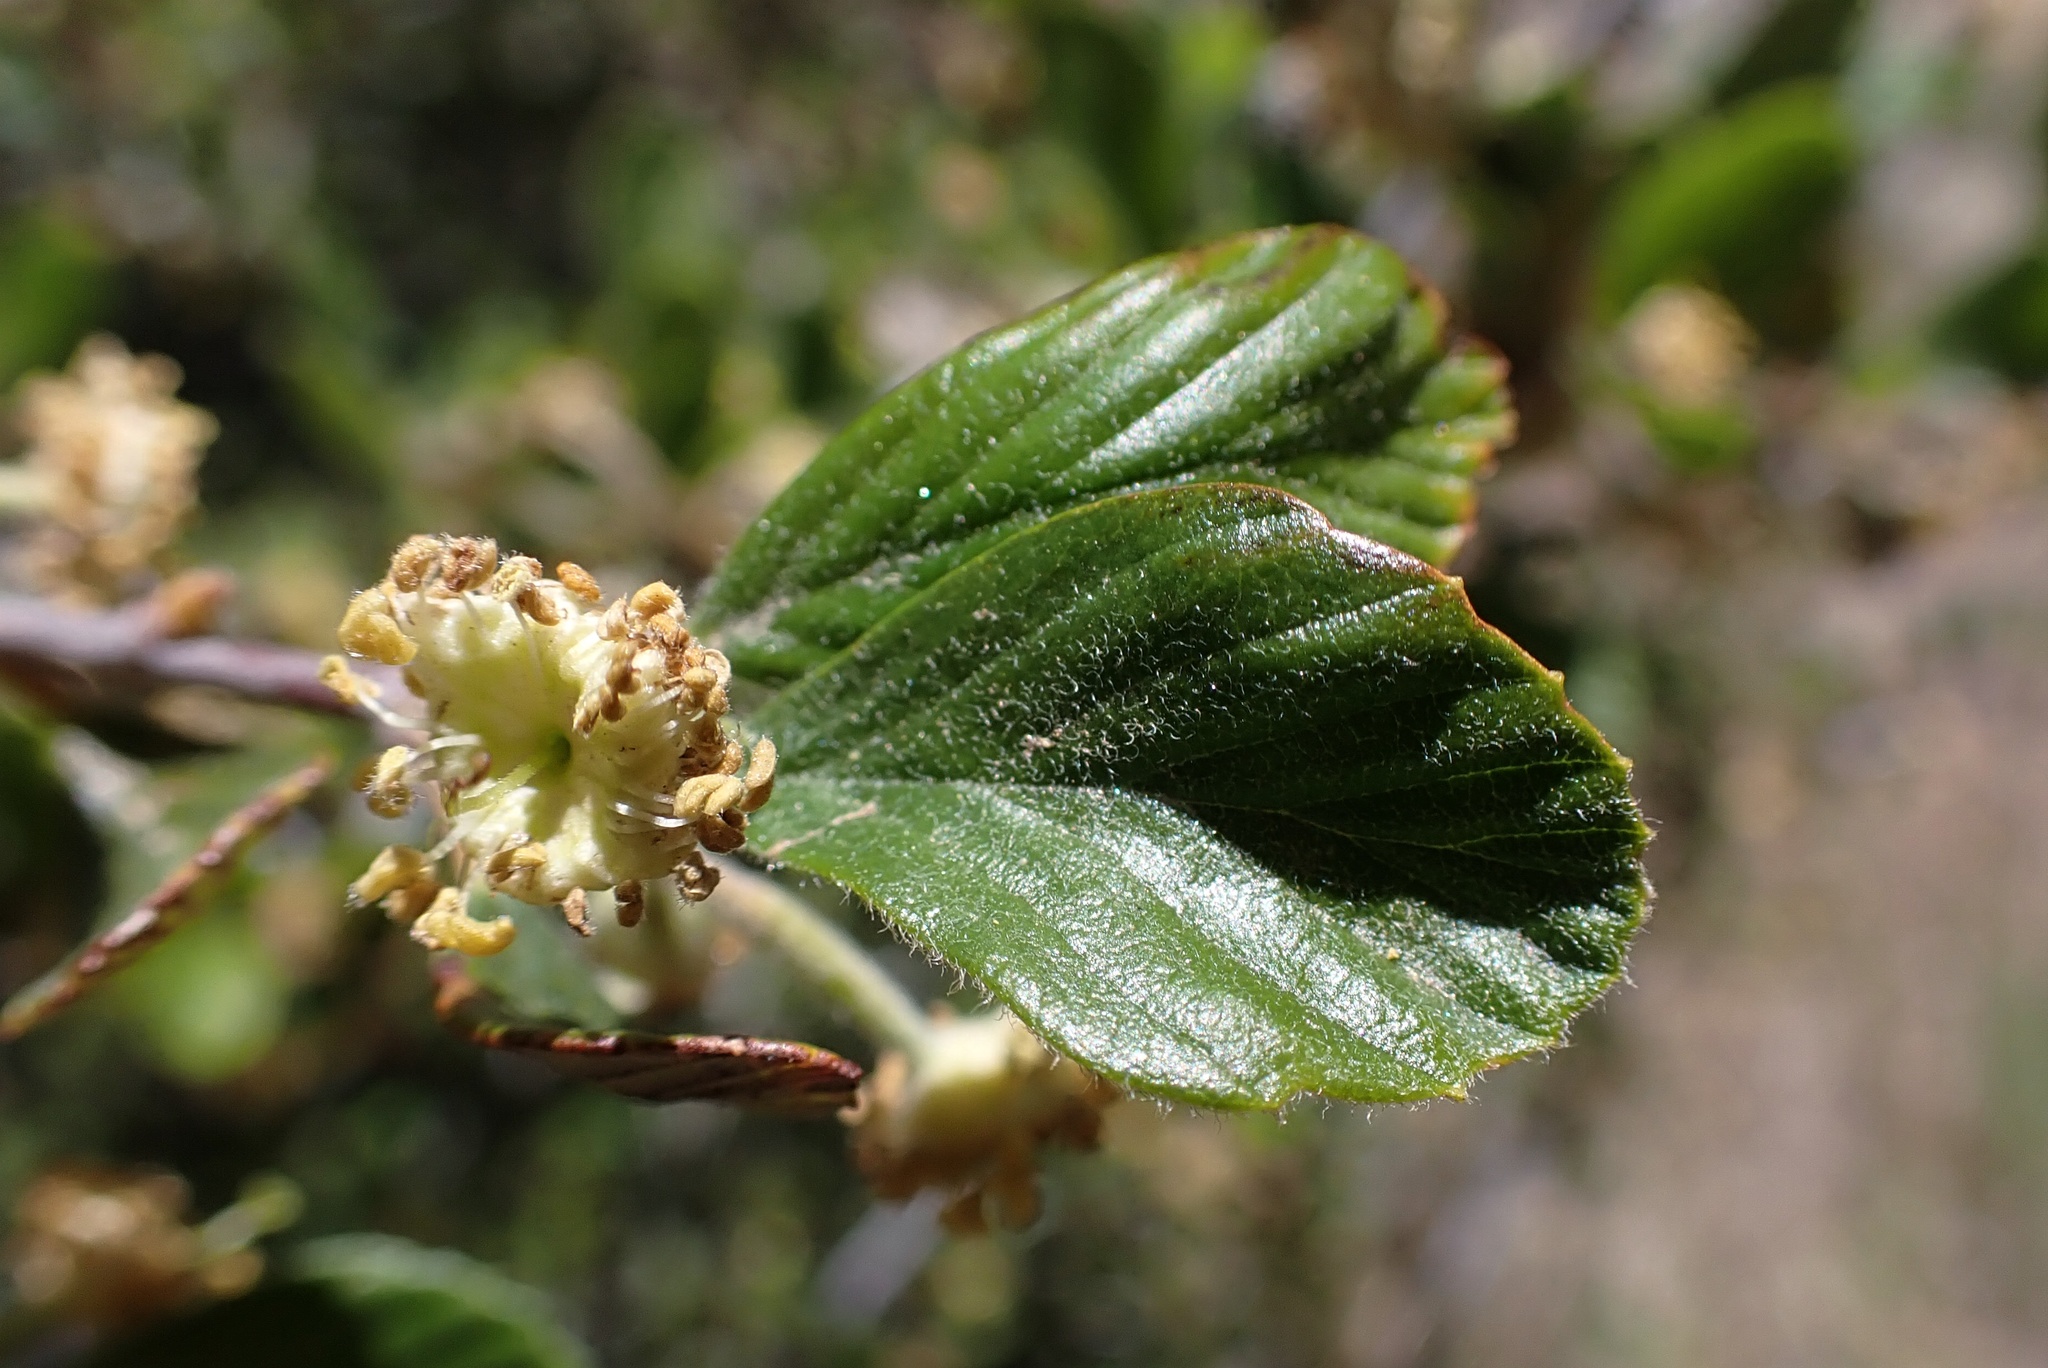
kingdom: Plantae
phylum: Tracheophyta
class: Magnoliopsida
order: Rosales
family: Rosaceae
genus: Cercocarpus
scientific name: Cercocarpus betuloides
